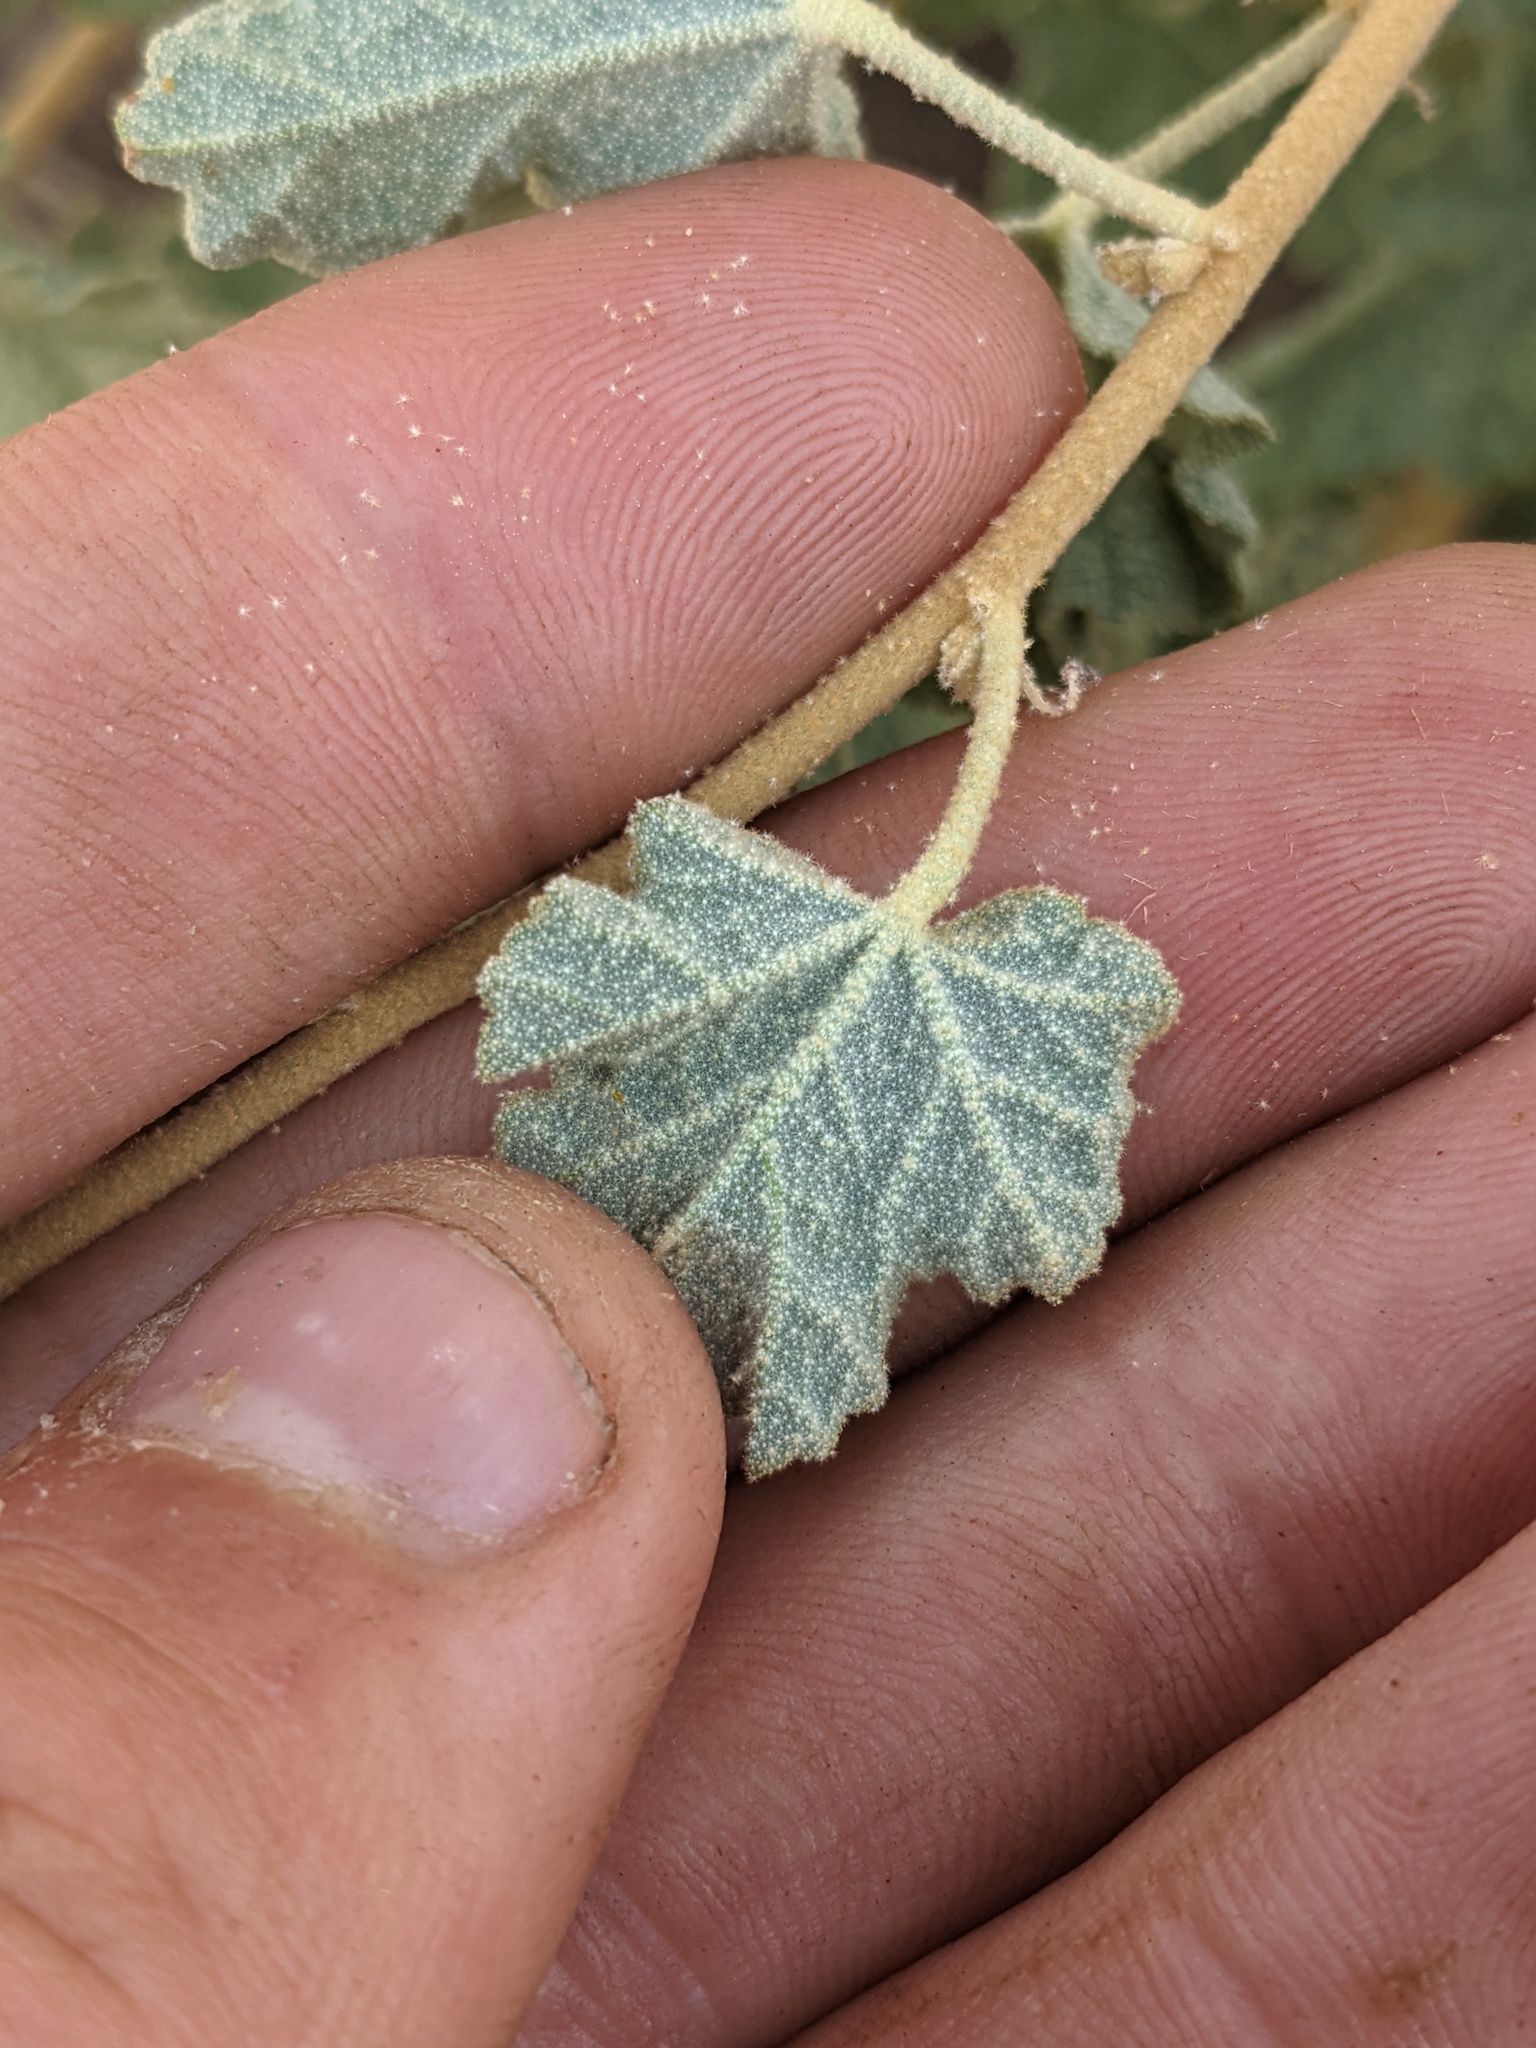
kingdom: Plantae
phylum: Tracheophyta
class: Magnoliopsida
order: Malvales
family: Malvaceae
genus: Sphaeralcea
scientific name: Sphaeralcea ambigua
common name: Apricot globe-mallow
